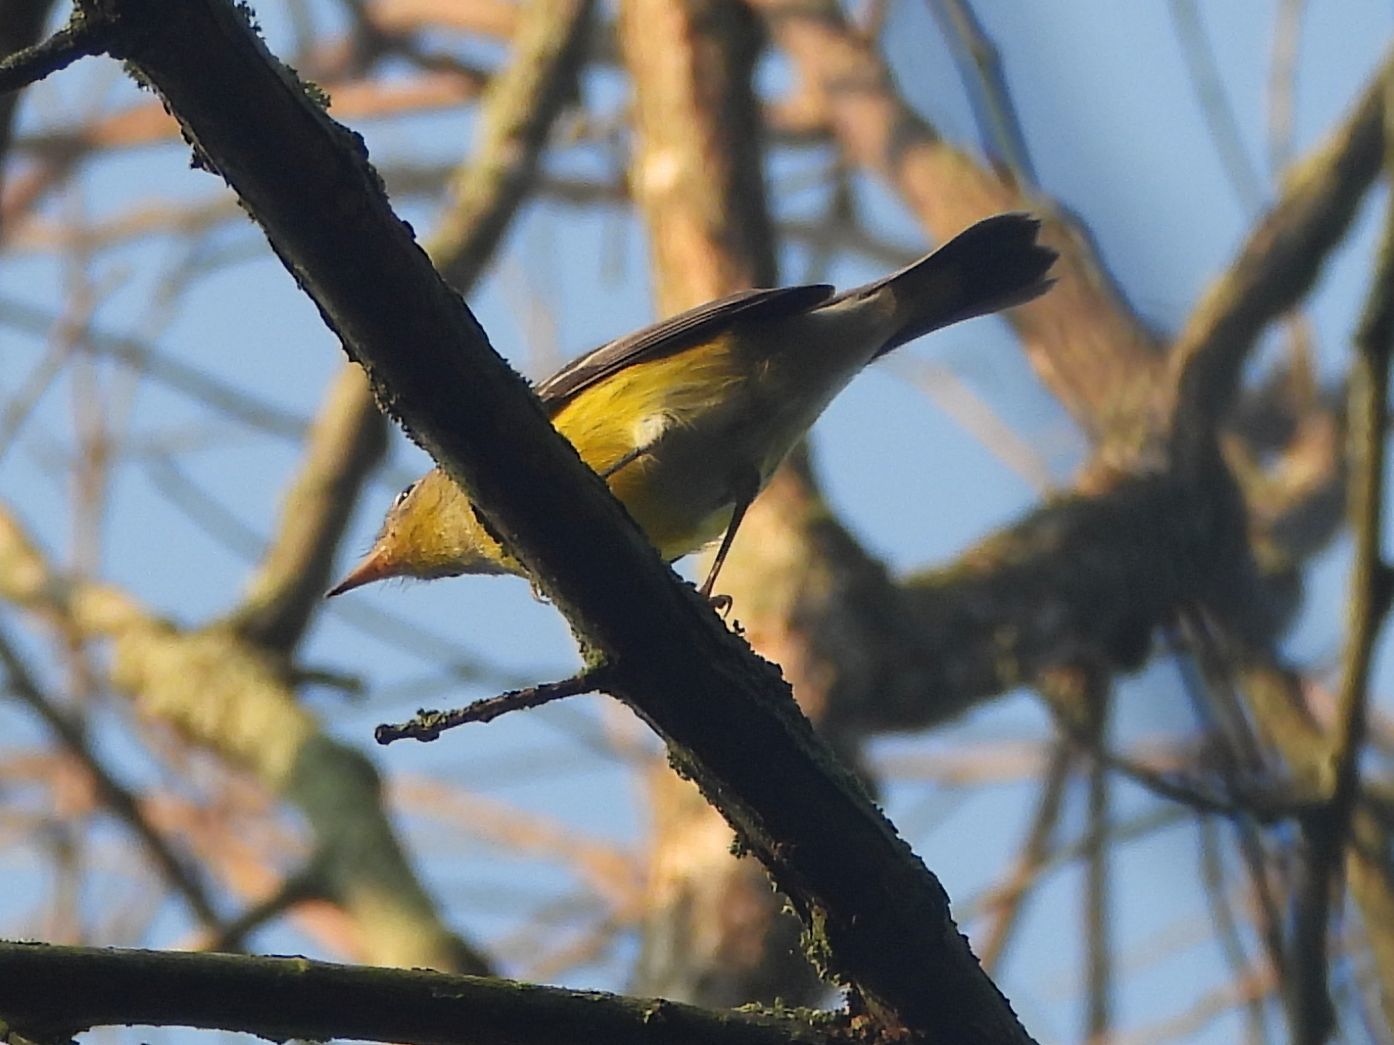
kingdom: Animalia
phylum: Chordata
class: Aves
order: Passeriformes
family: Parulidae
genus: Setophaga
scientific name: Setophaga magnolia
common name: Magnolia warbler
